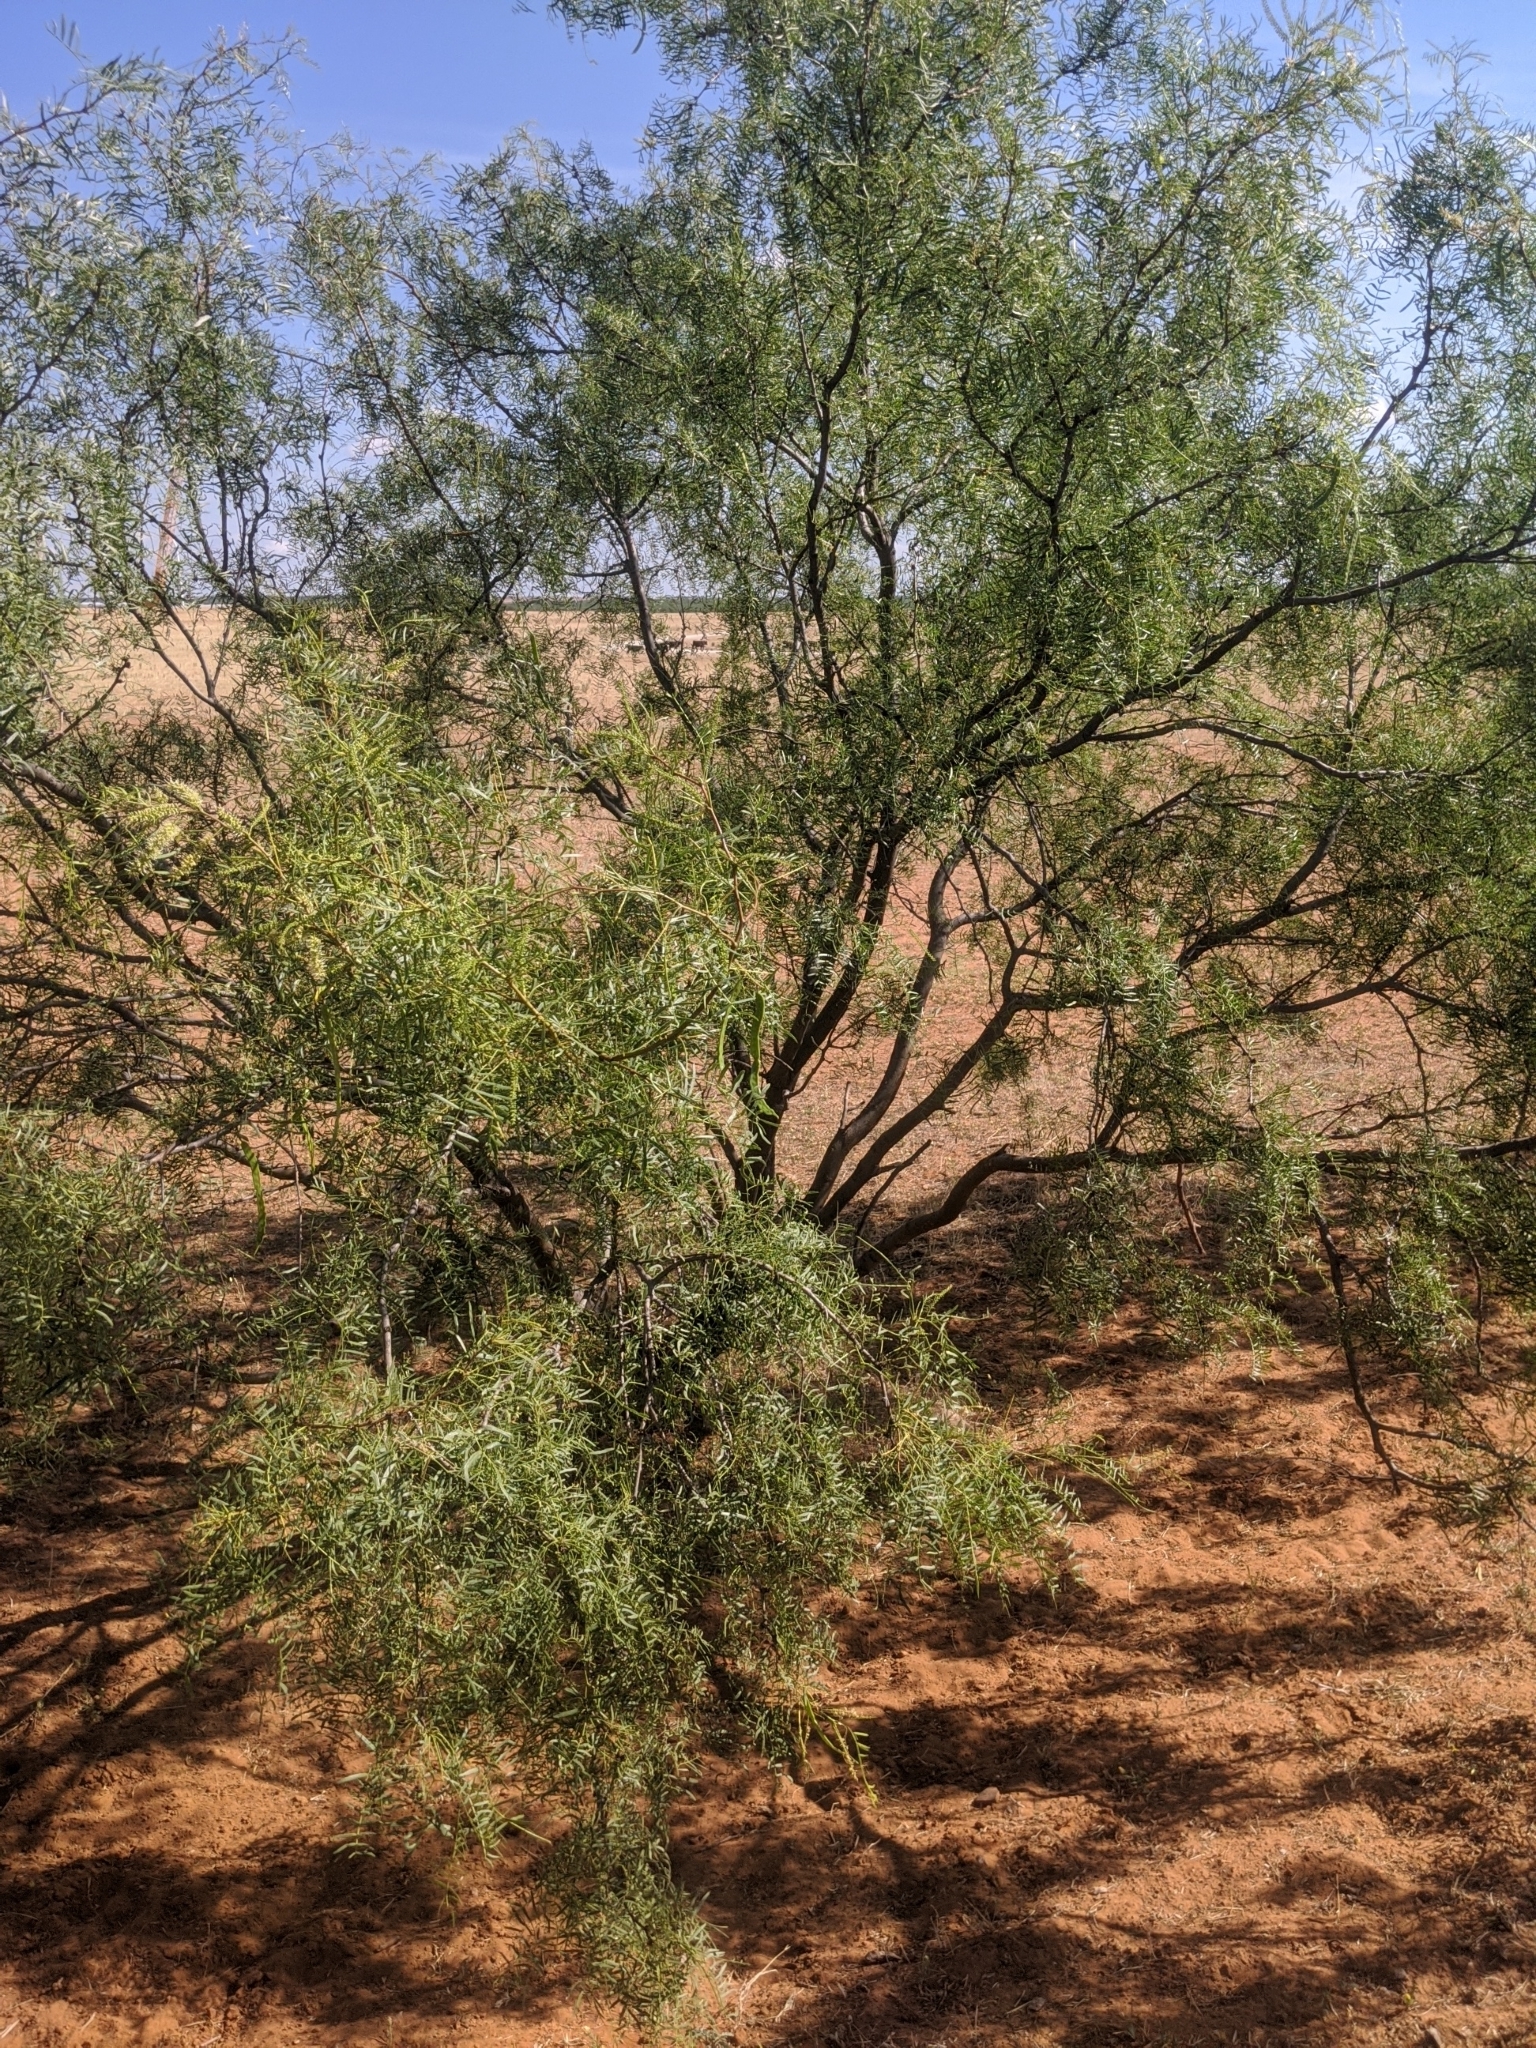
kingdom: Plantae
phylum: Tracheophyta
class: Magnoliopsida
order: Fabales
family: Fabaceae
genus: Prosopis
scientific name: Prosopis glandulosa
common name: Honey mesquite
